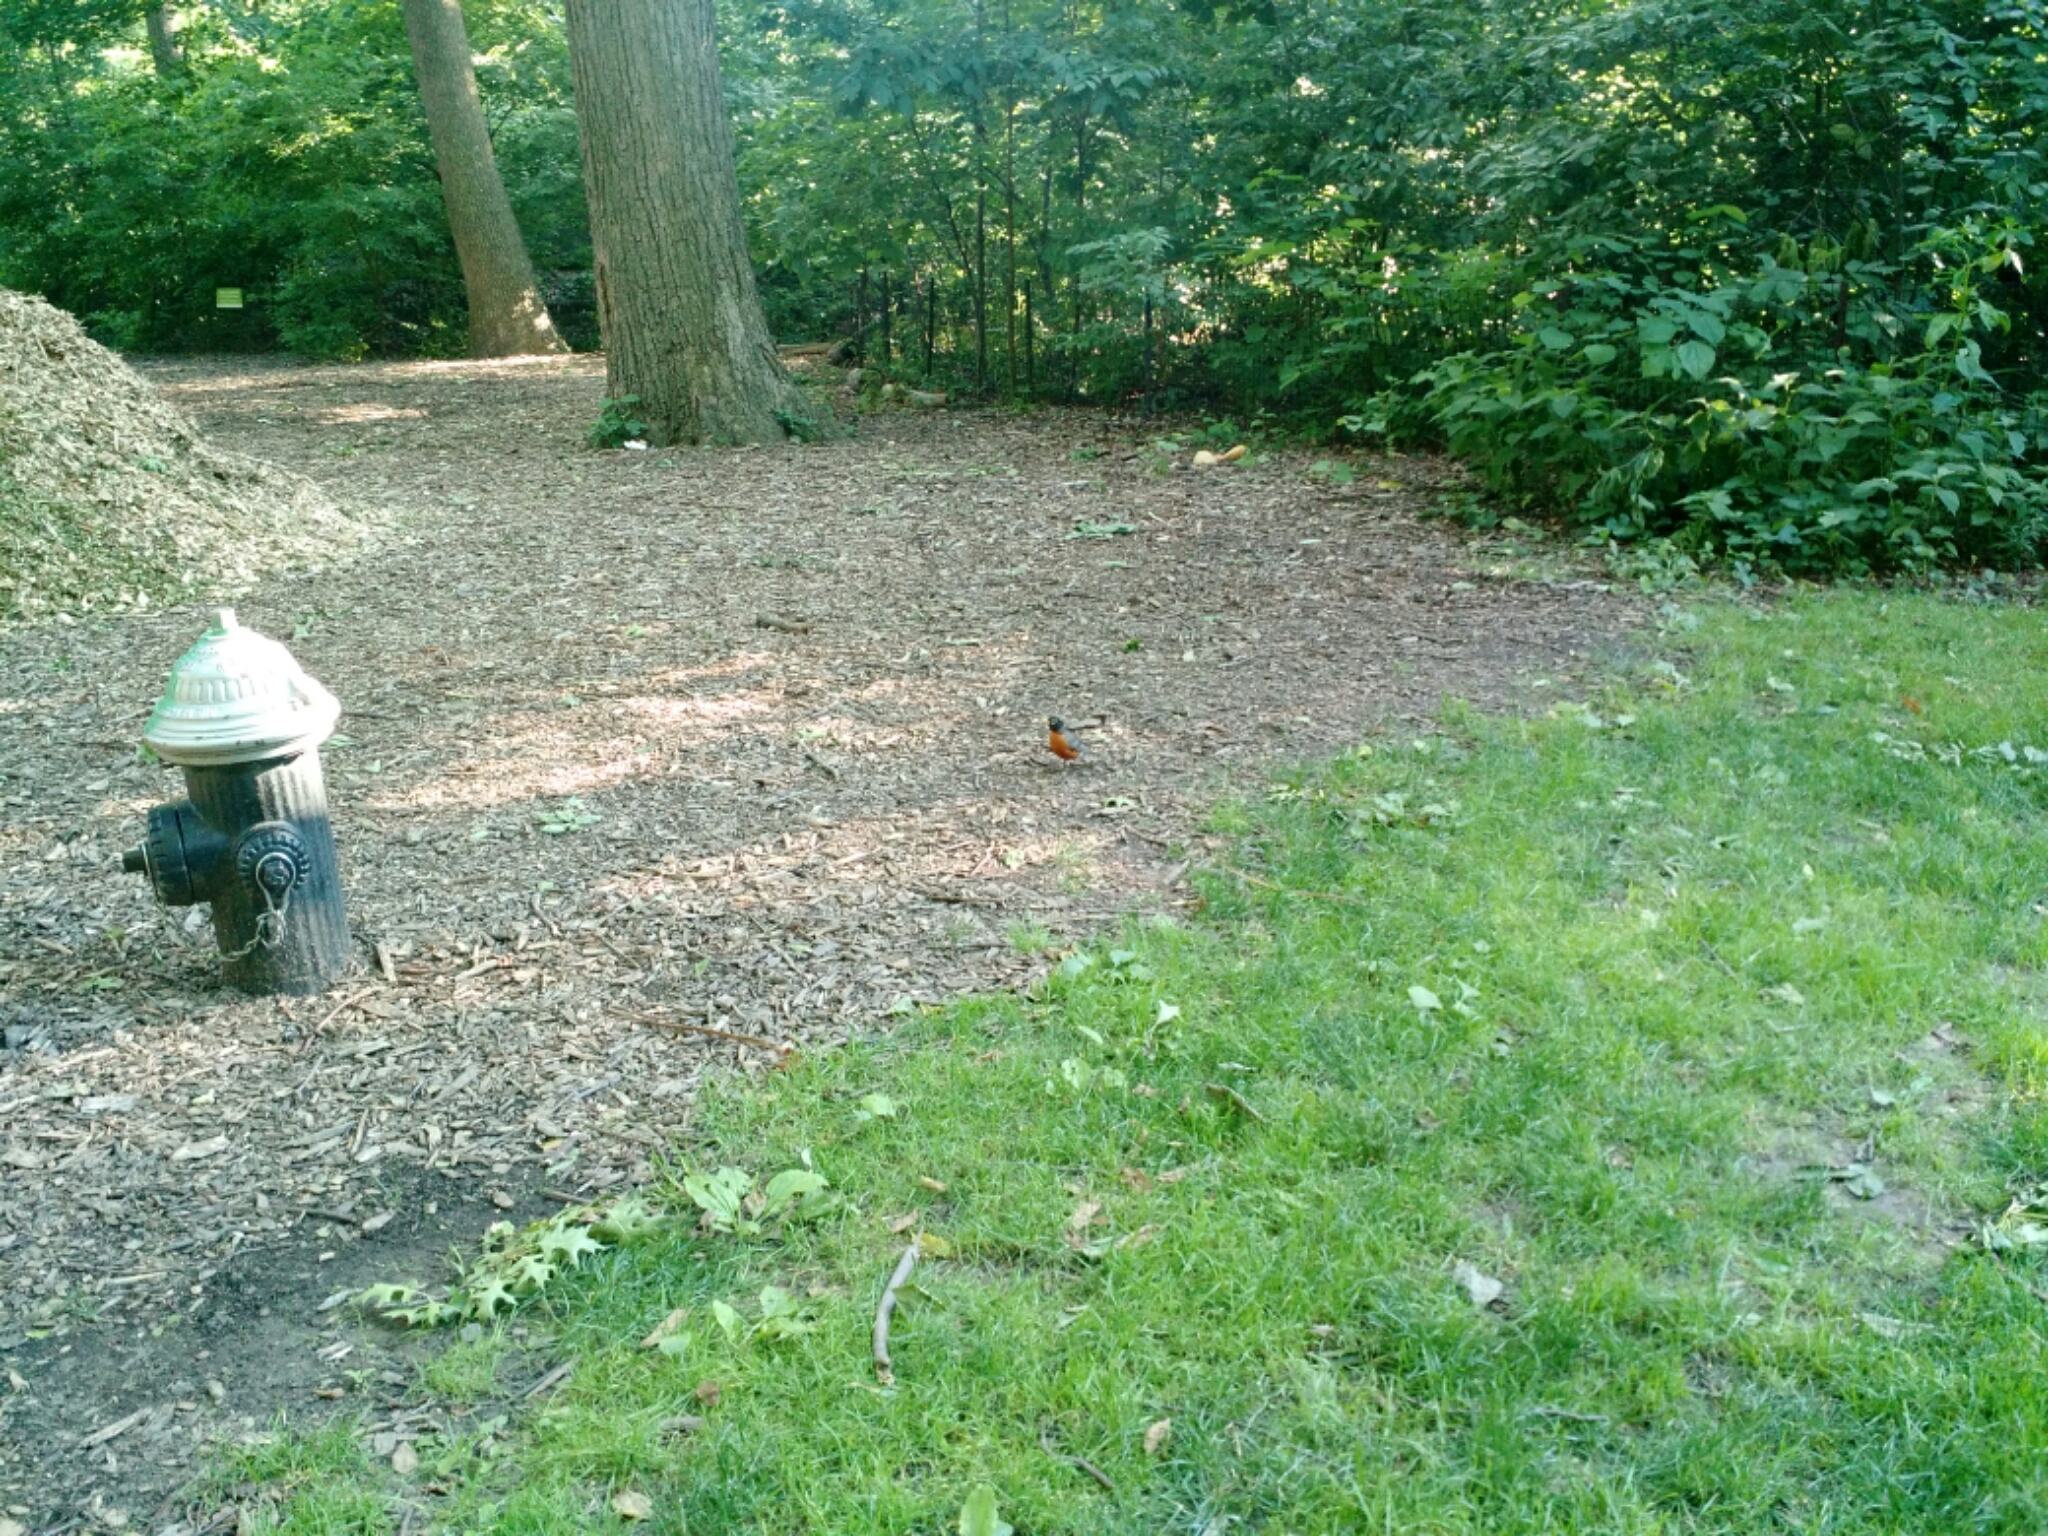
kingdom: Animalia
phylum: Chordata
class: Aves
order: Passeriformes
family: Turdidae
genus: Turdus
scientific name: Turdus migratorius
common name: American robin
